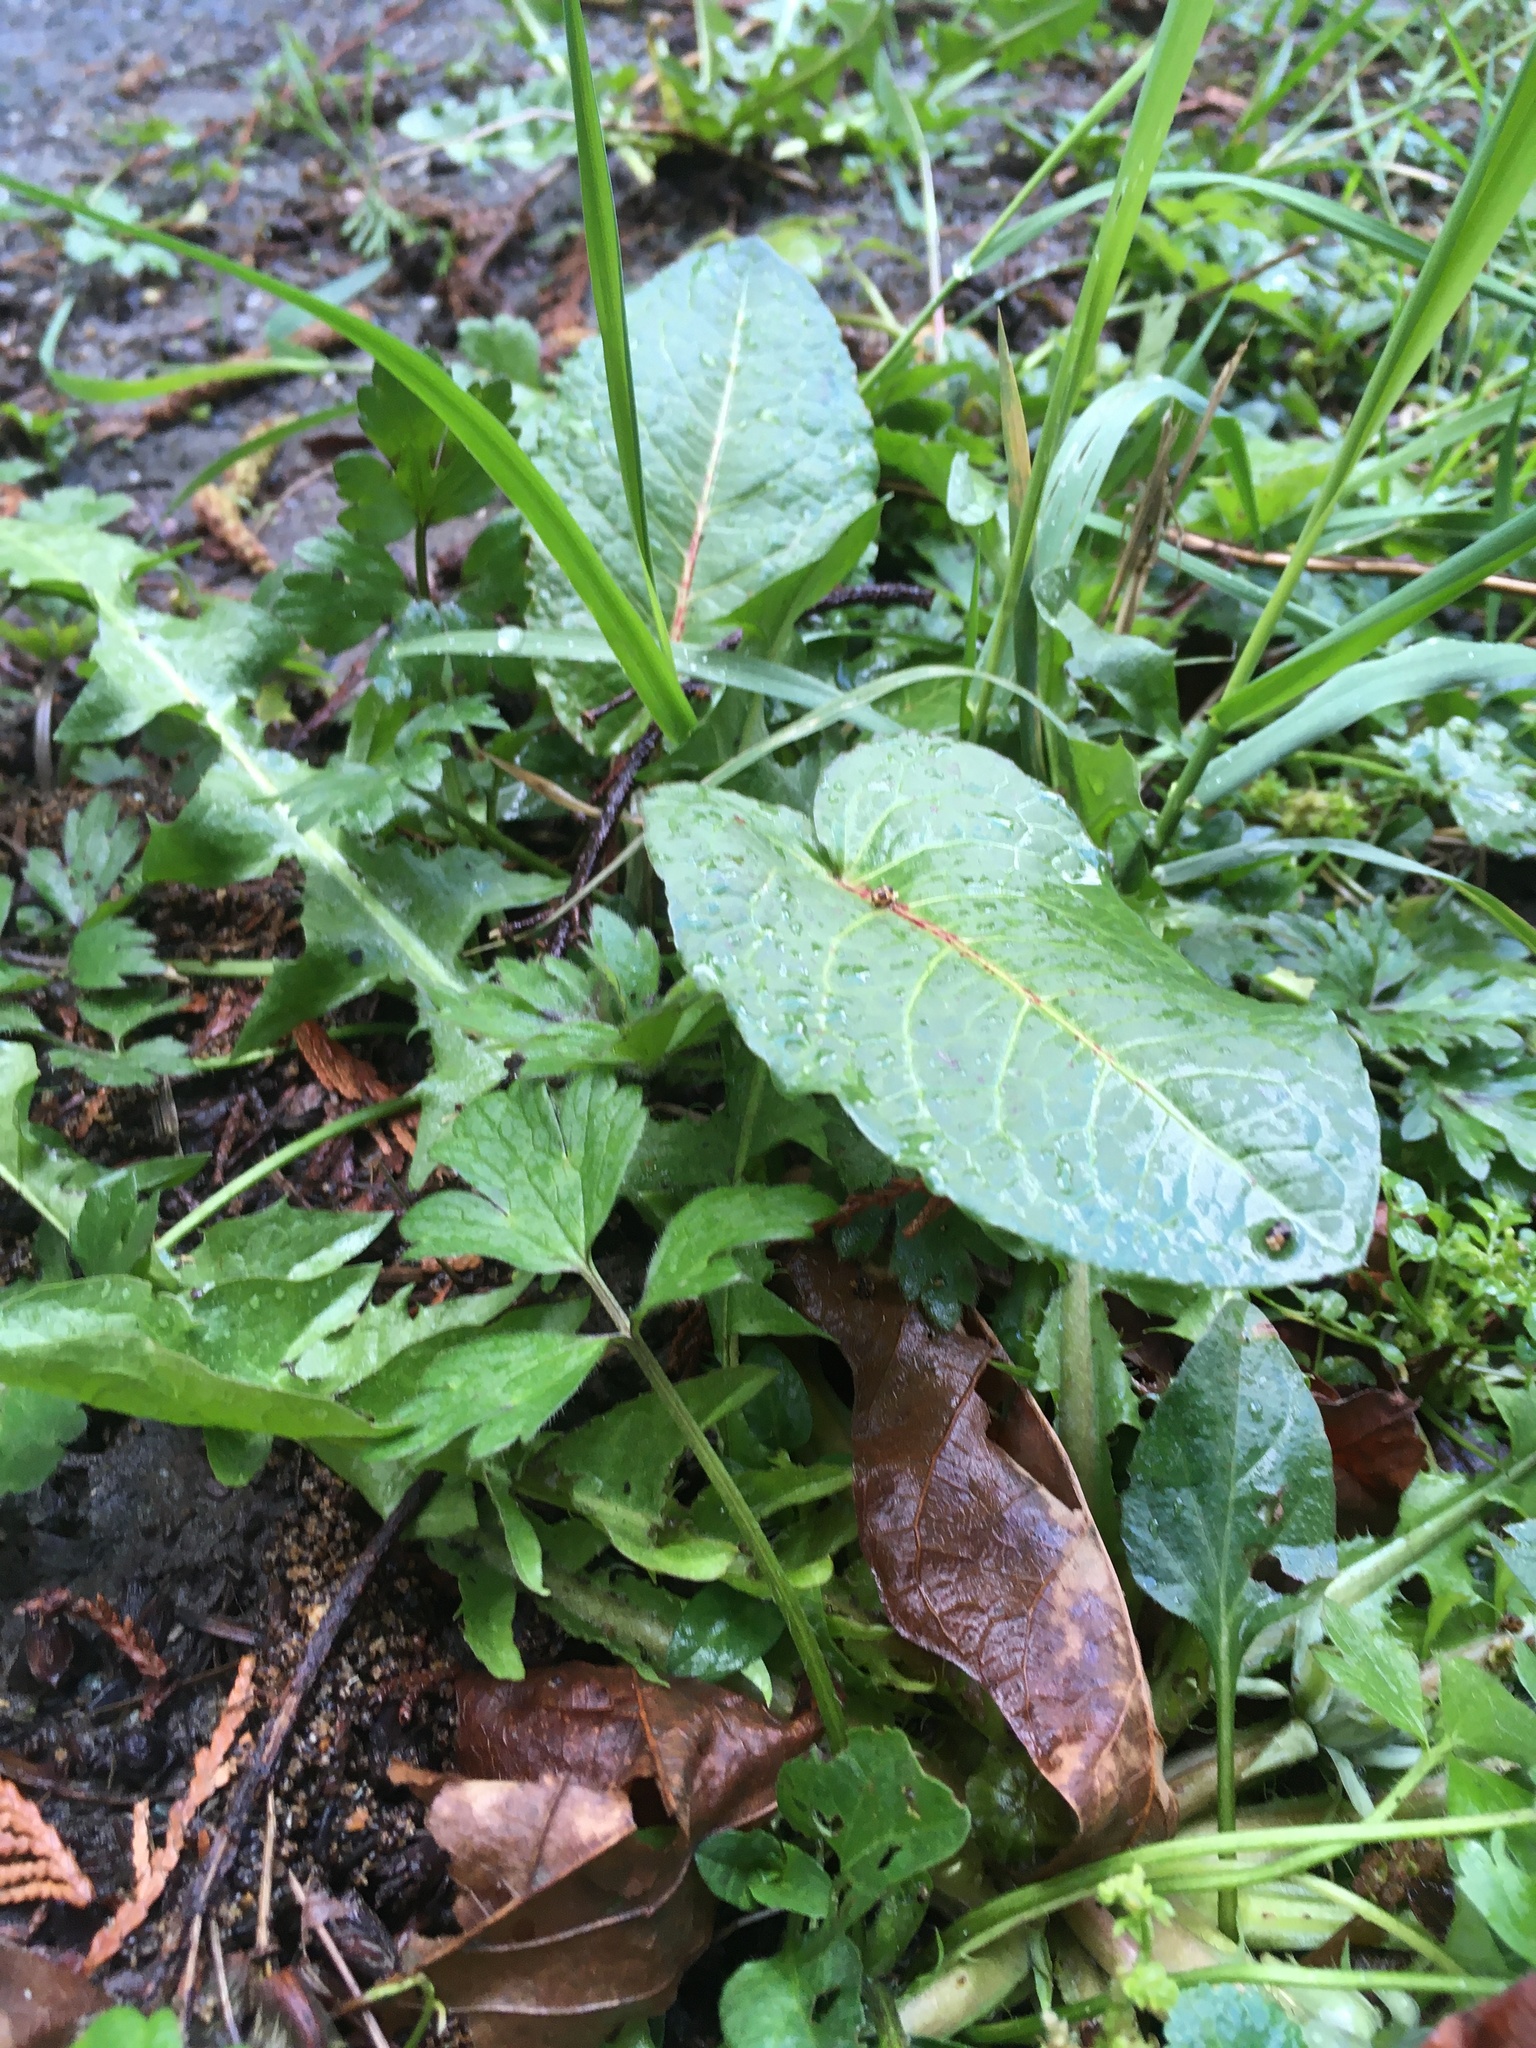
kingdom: Plantae
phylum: Tracheophyta
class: Magnoliopsida
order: Caryophyllales
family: Polygonaceae
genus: Rumex
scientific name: Rumex obtusifolius
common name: Bitter dock
